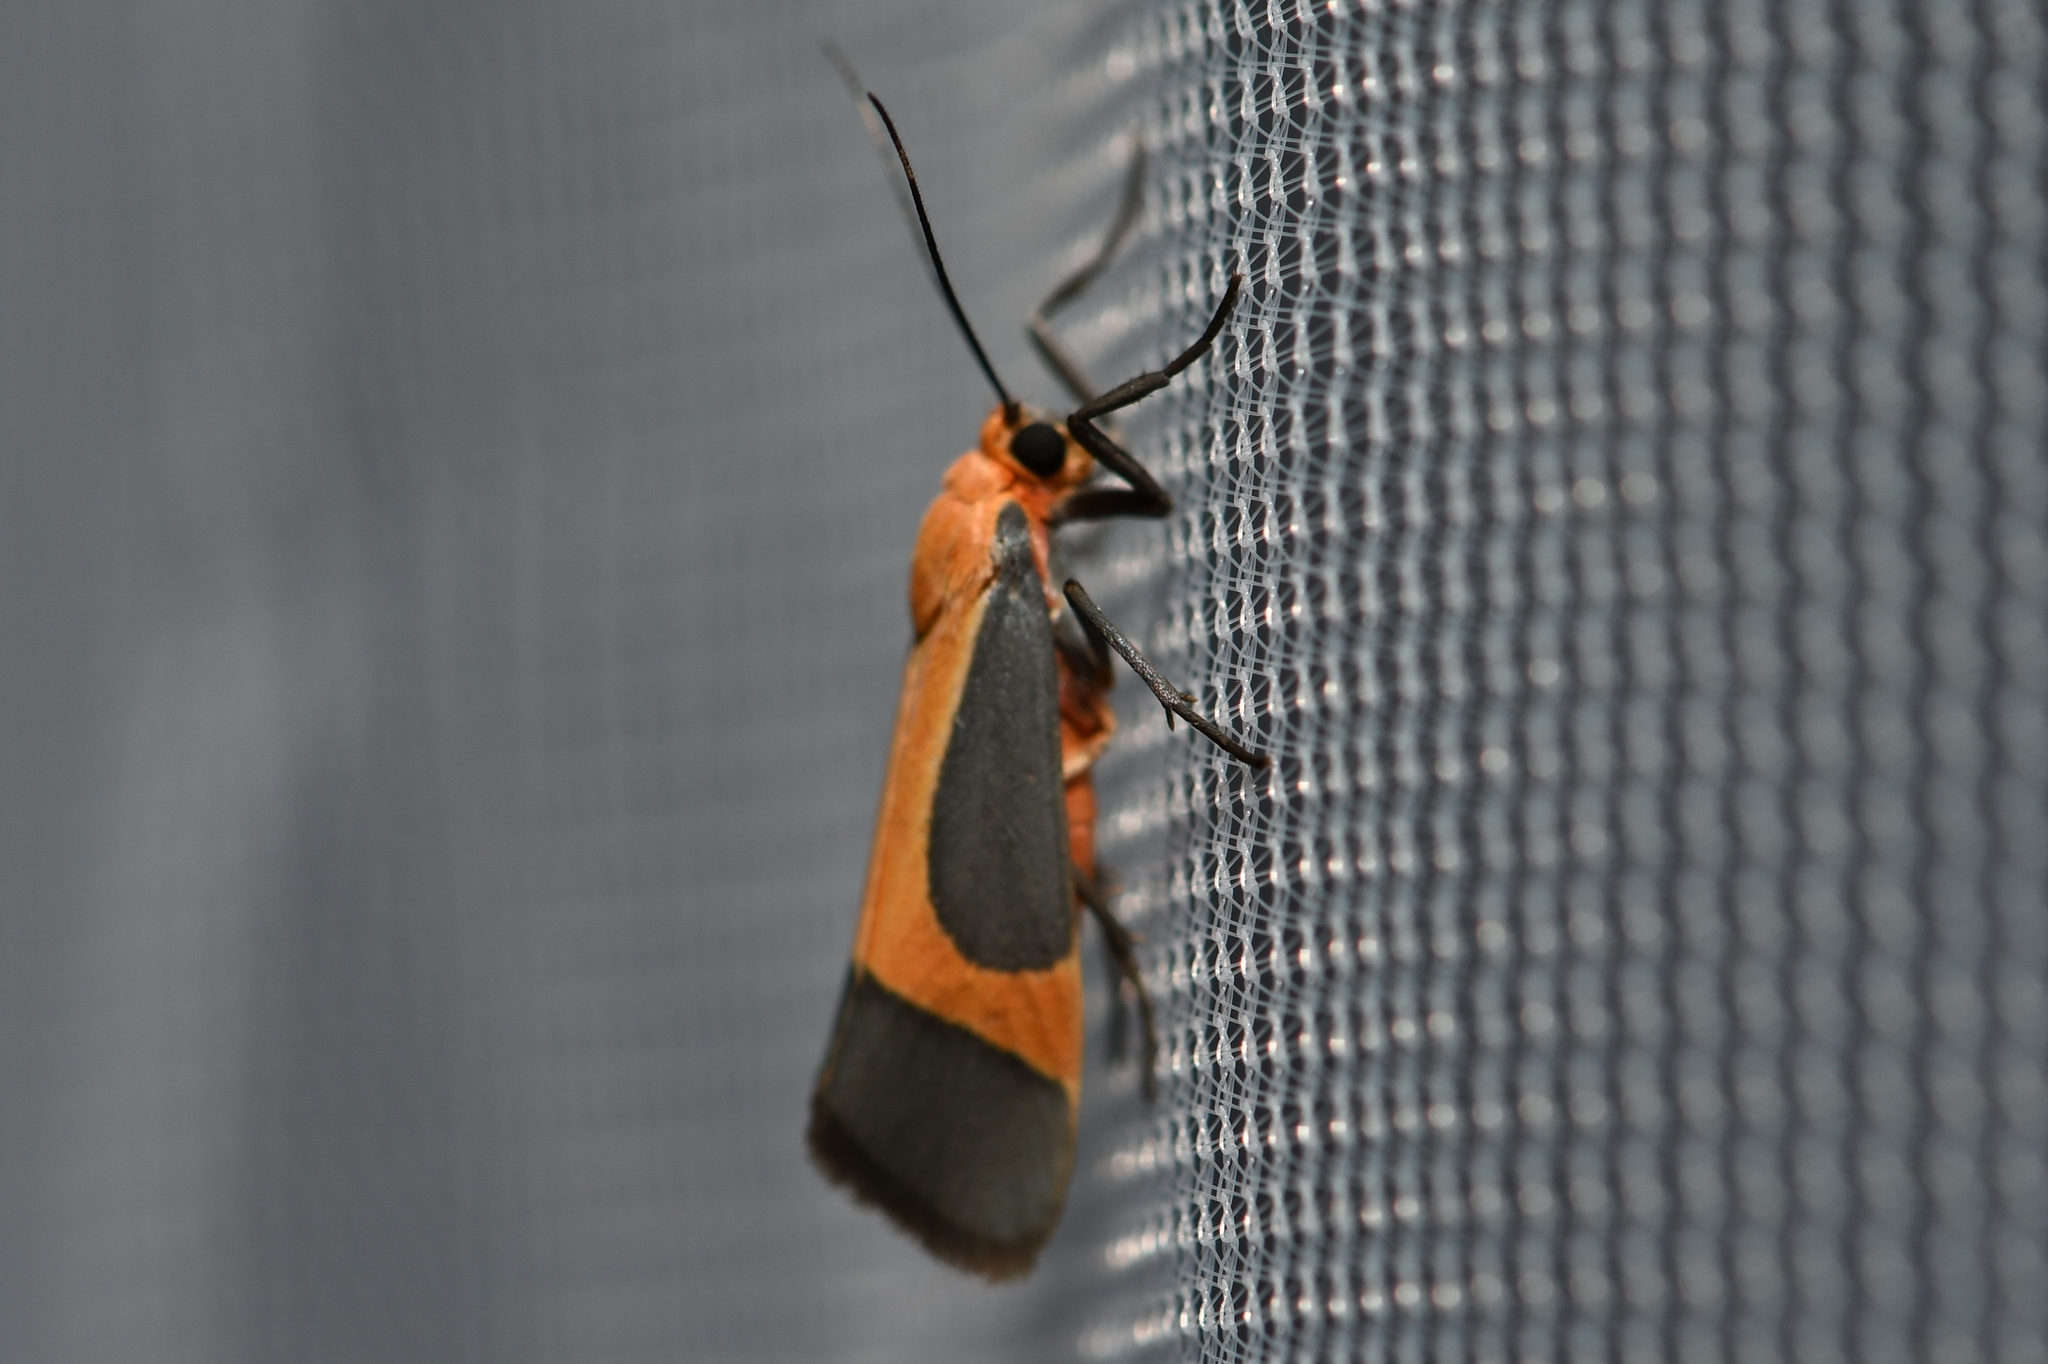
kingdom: Animalia
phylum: Arthropoda
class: Insecta
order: Lepidoptera
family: Erebidae
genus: Cisthene
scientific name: Cisthene angelus
